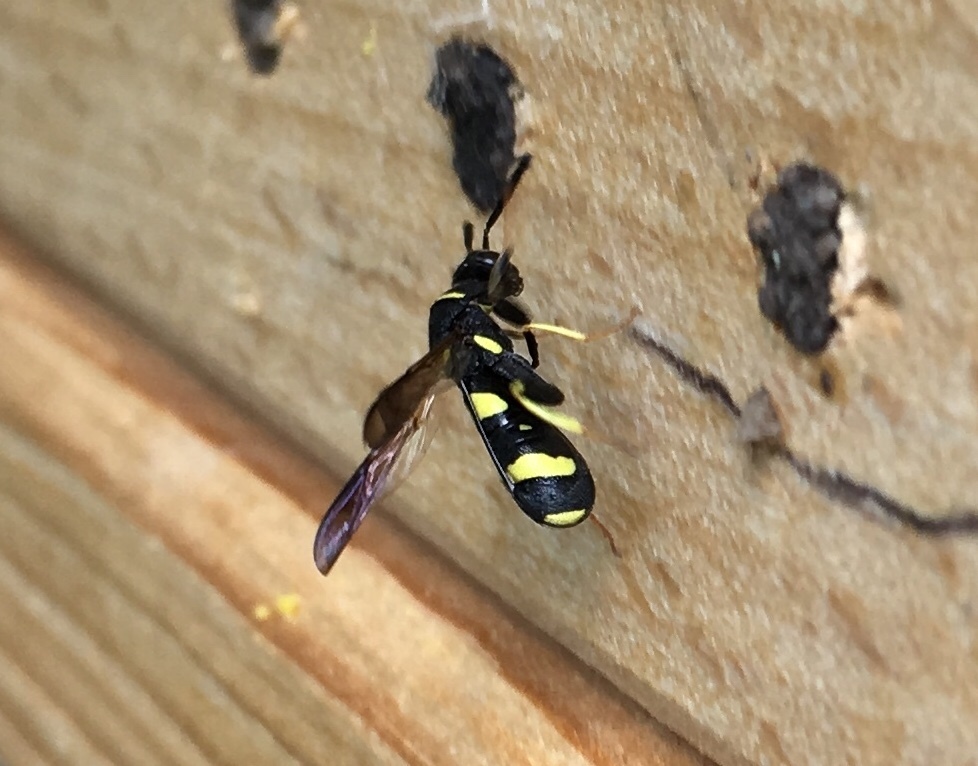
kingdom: Animalia
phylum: Arthropoda
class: Insecta
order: Hymenoptera
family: Leucospidae
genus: Leucospis
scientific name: Leucospis dorsigera
